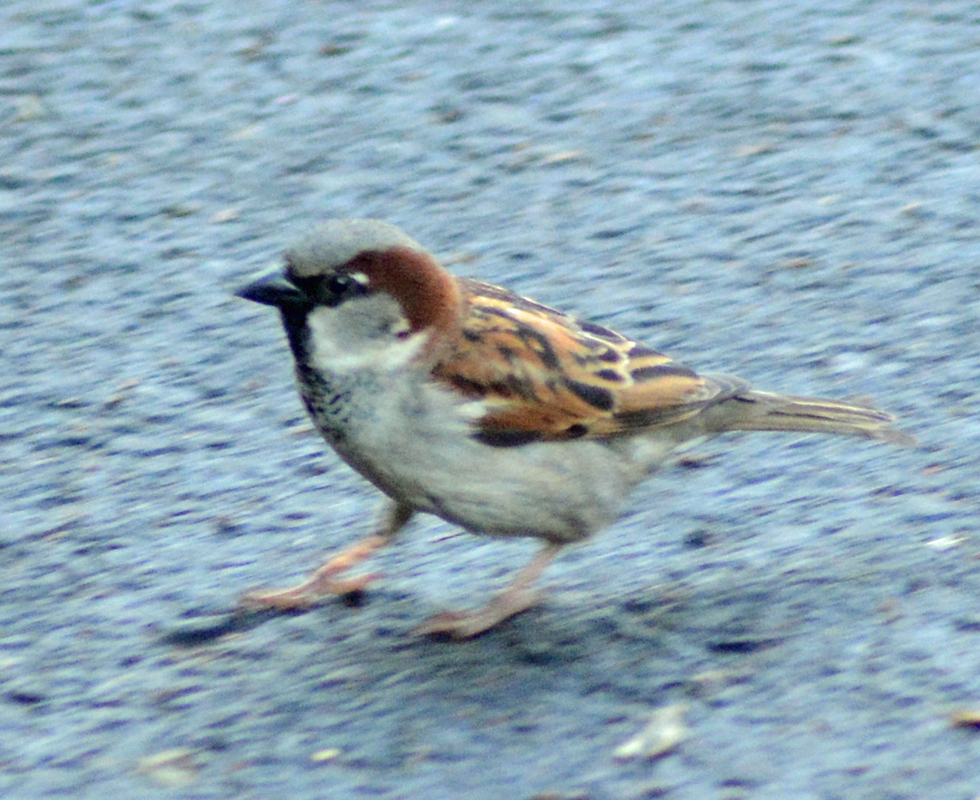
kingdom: Animalia
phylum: Chordata
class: Aves
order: Passeriformes
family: Passeridae
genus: Passer
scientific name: Passer domesticus
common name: House sparrow
